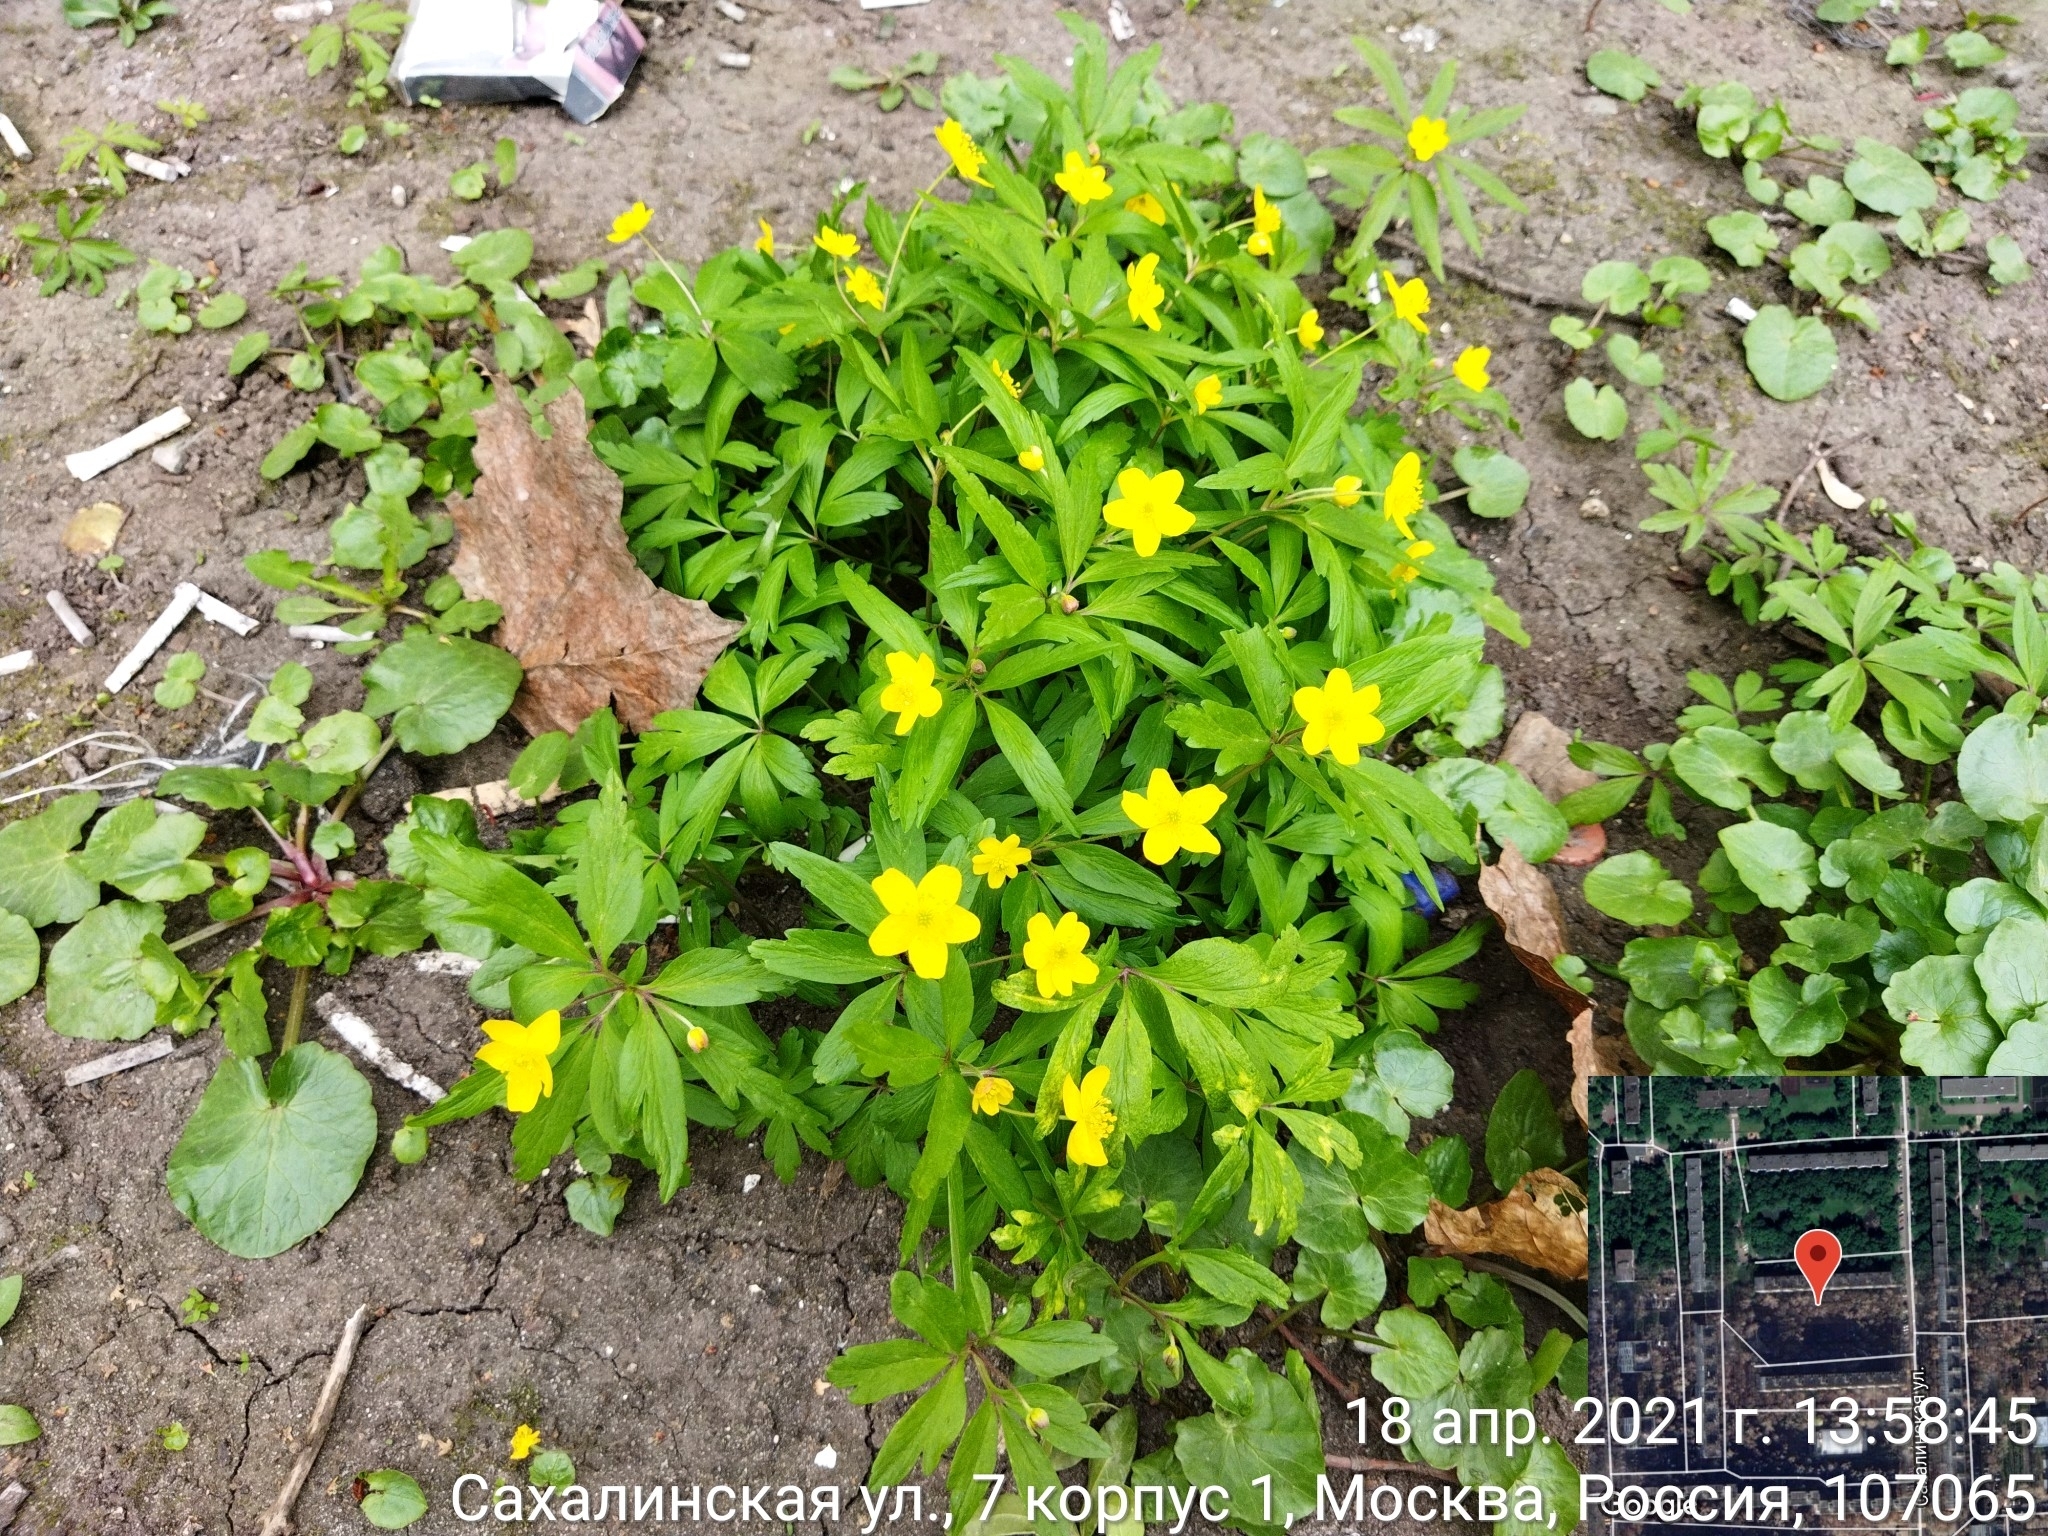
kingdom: Plantae
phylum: Tracheophyta
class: Magnoliopsida
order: Ranunculales
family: Ranunculaceae
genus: Anemone
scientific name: Anemone ranunculoides
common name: Yellow anemone
